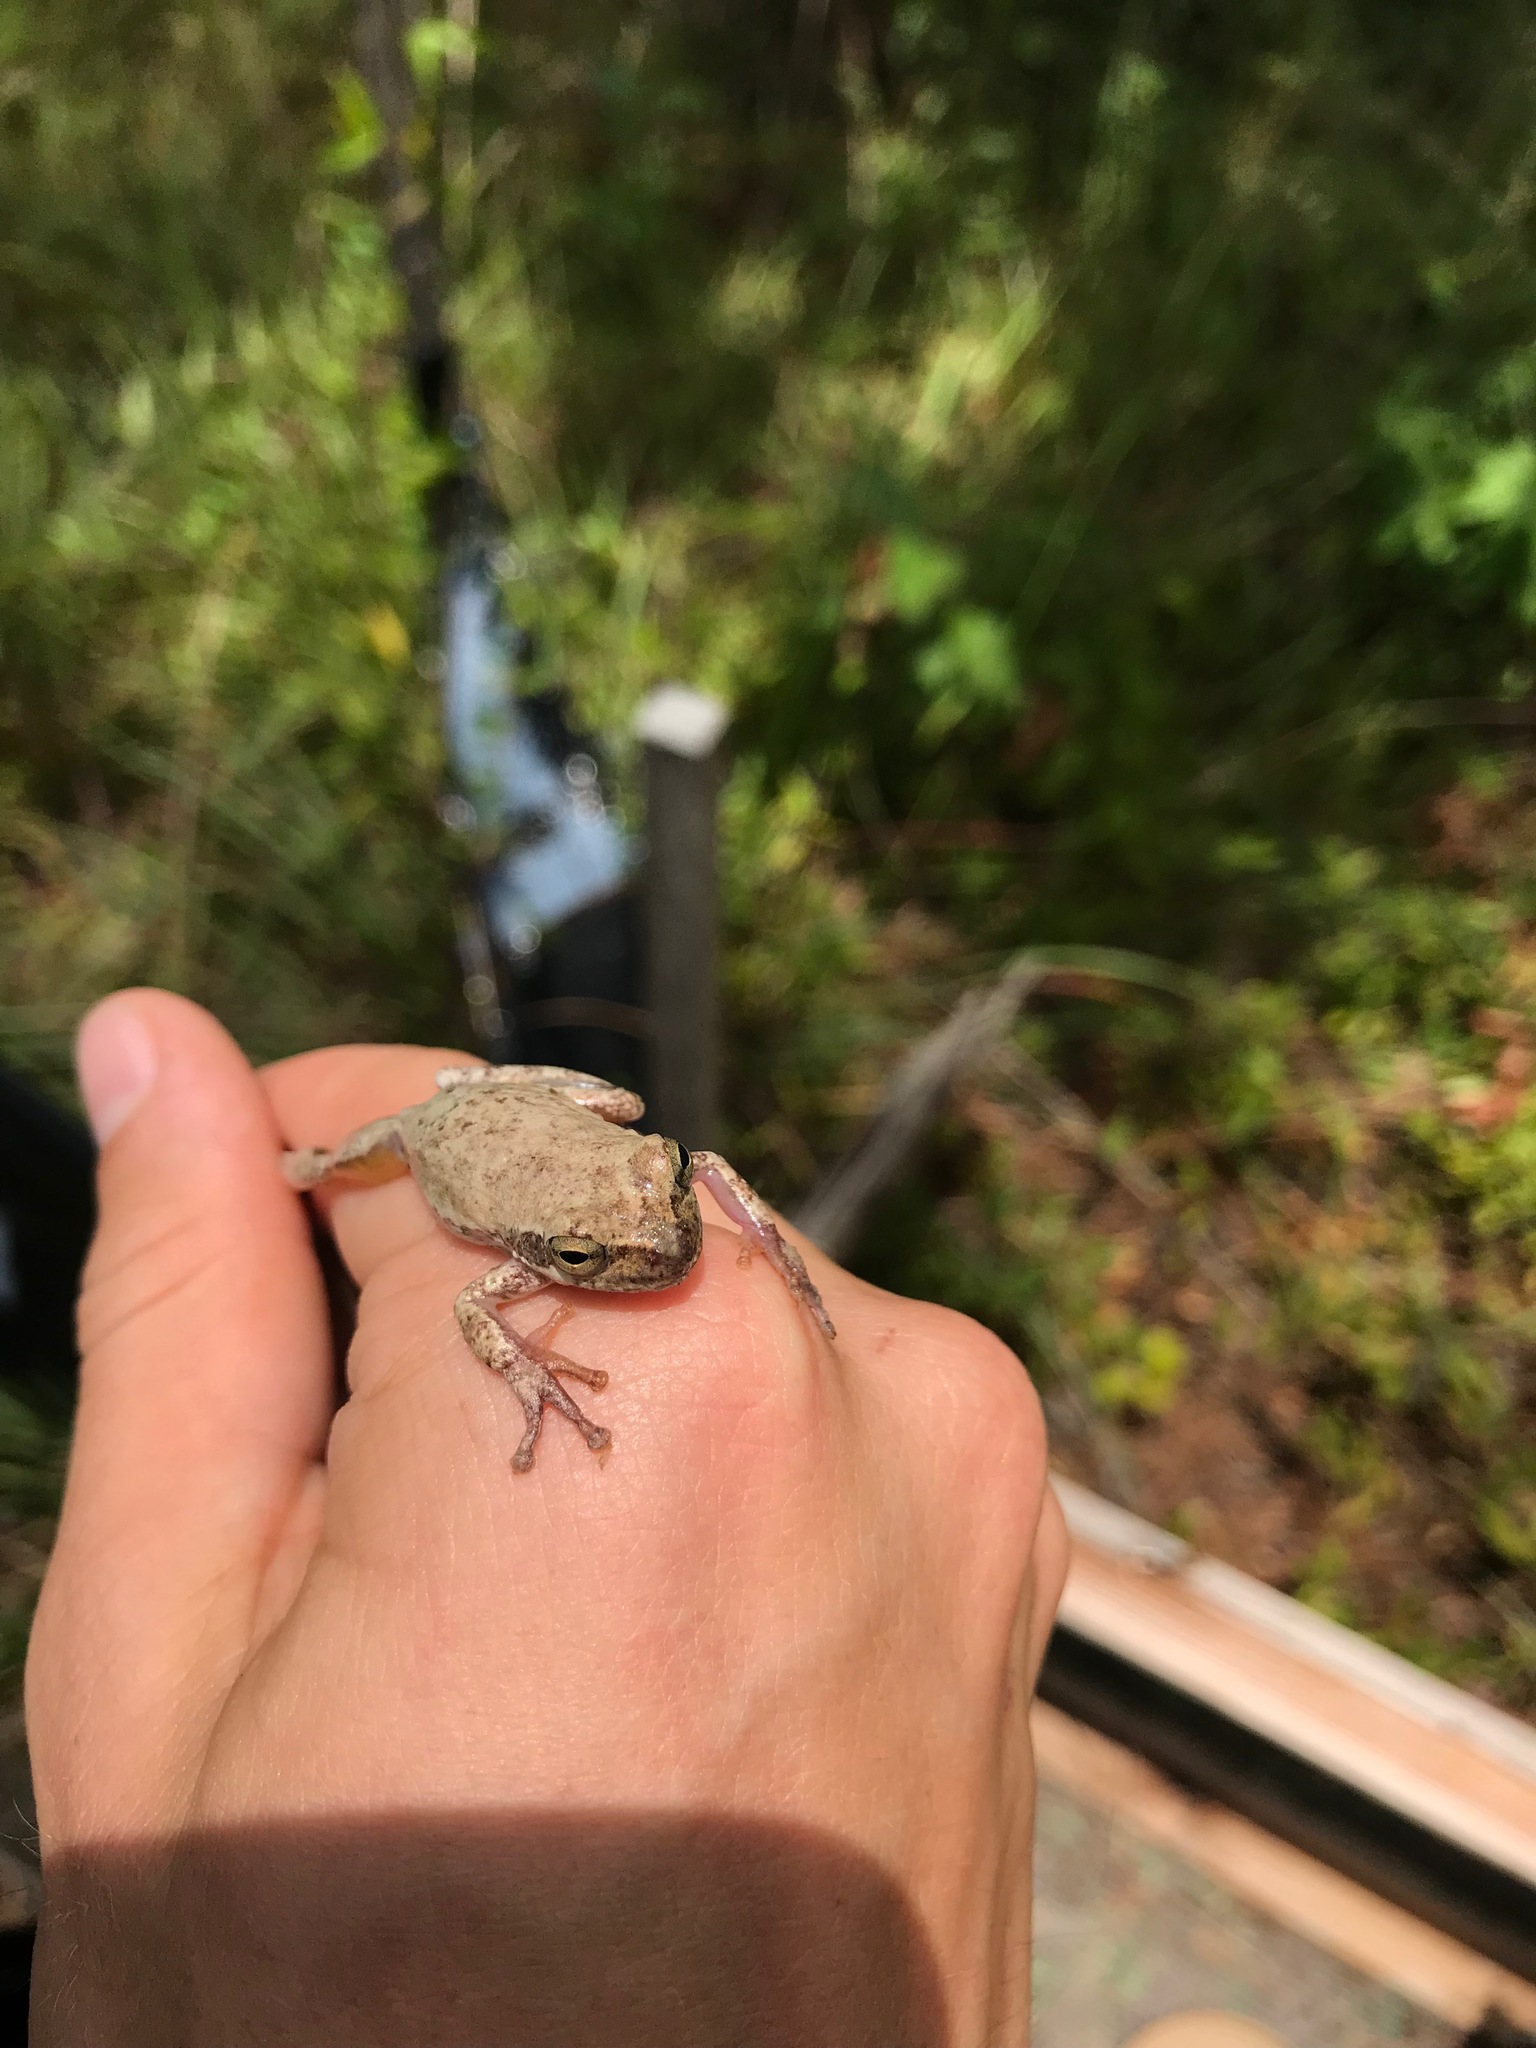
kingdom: Animalia
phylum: Chordata
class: Amphibia
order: Anura
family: Hylidae
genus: Dryophytes
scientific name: Dryophytes squirellus
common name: Squirrel treefrog
